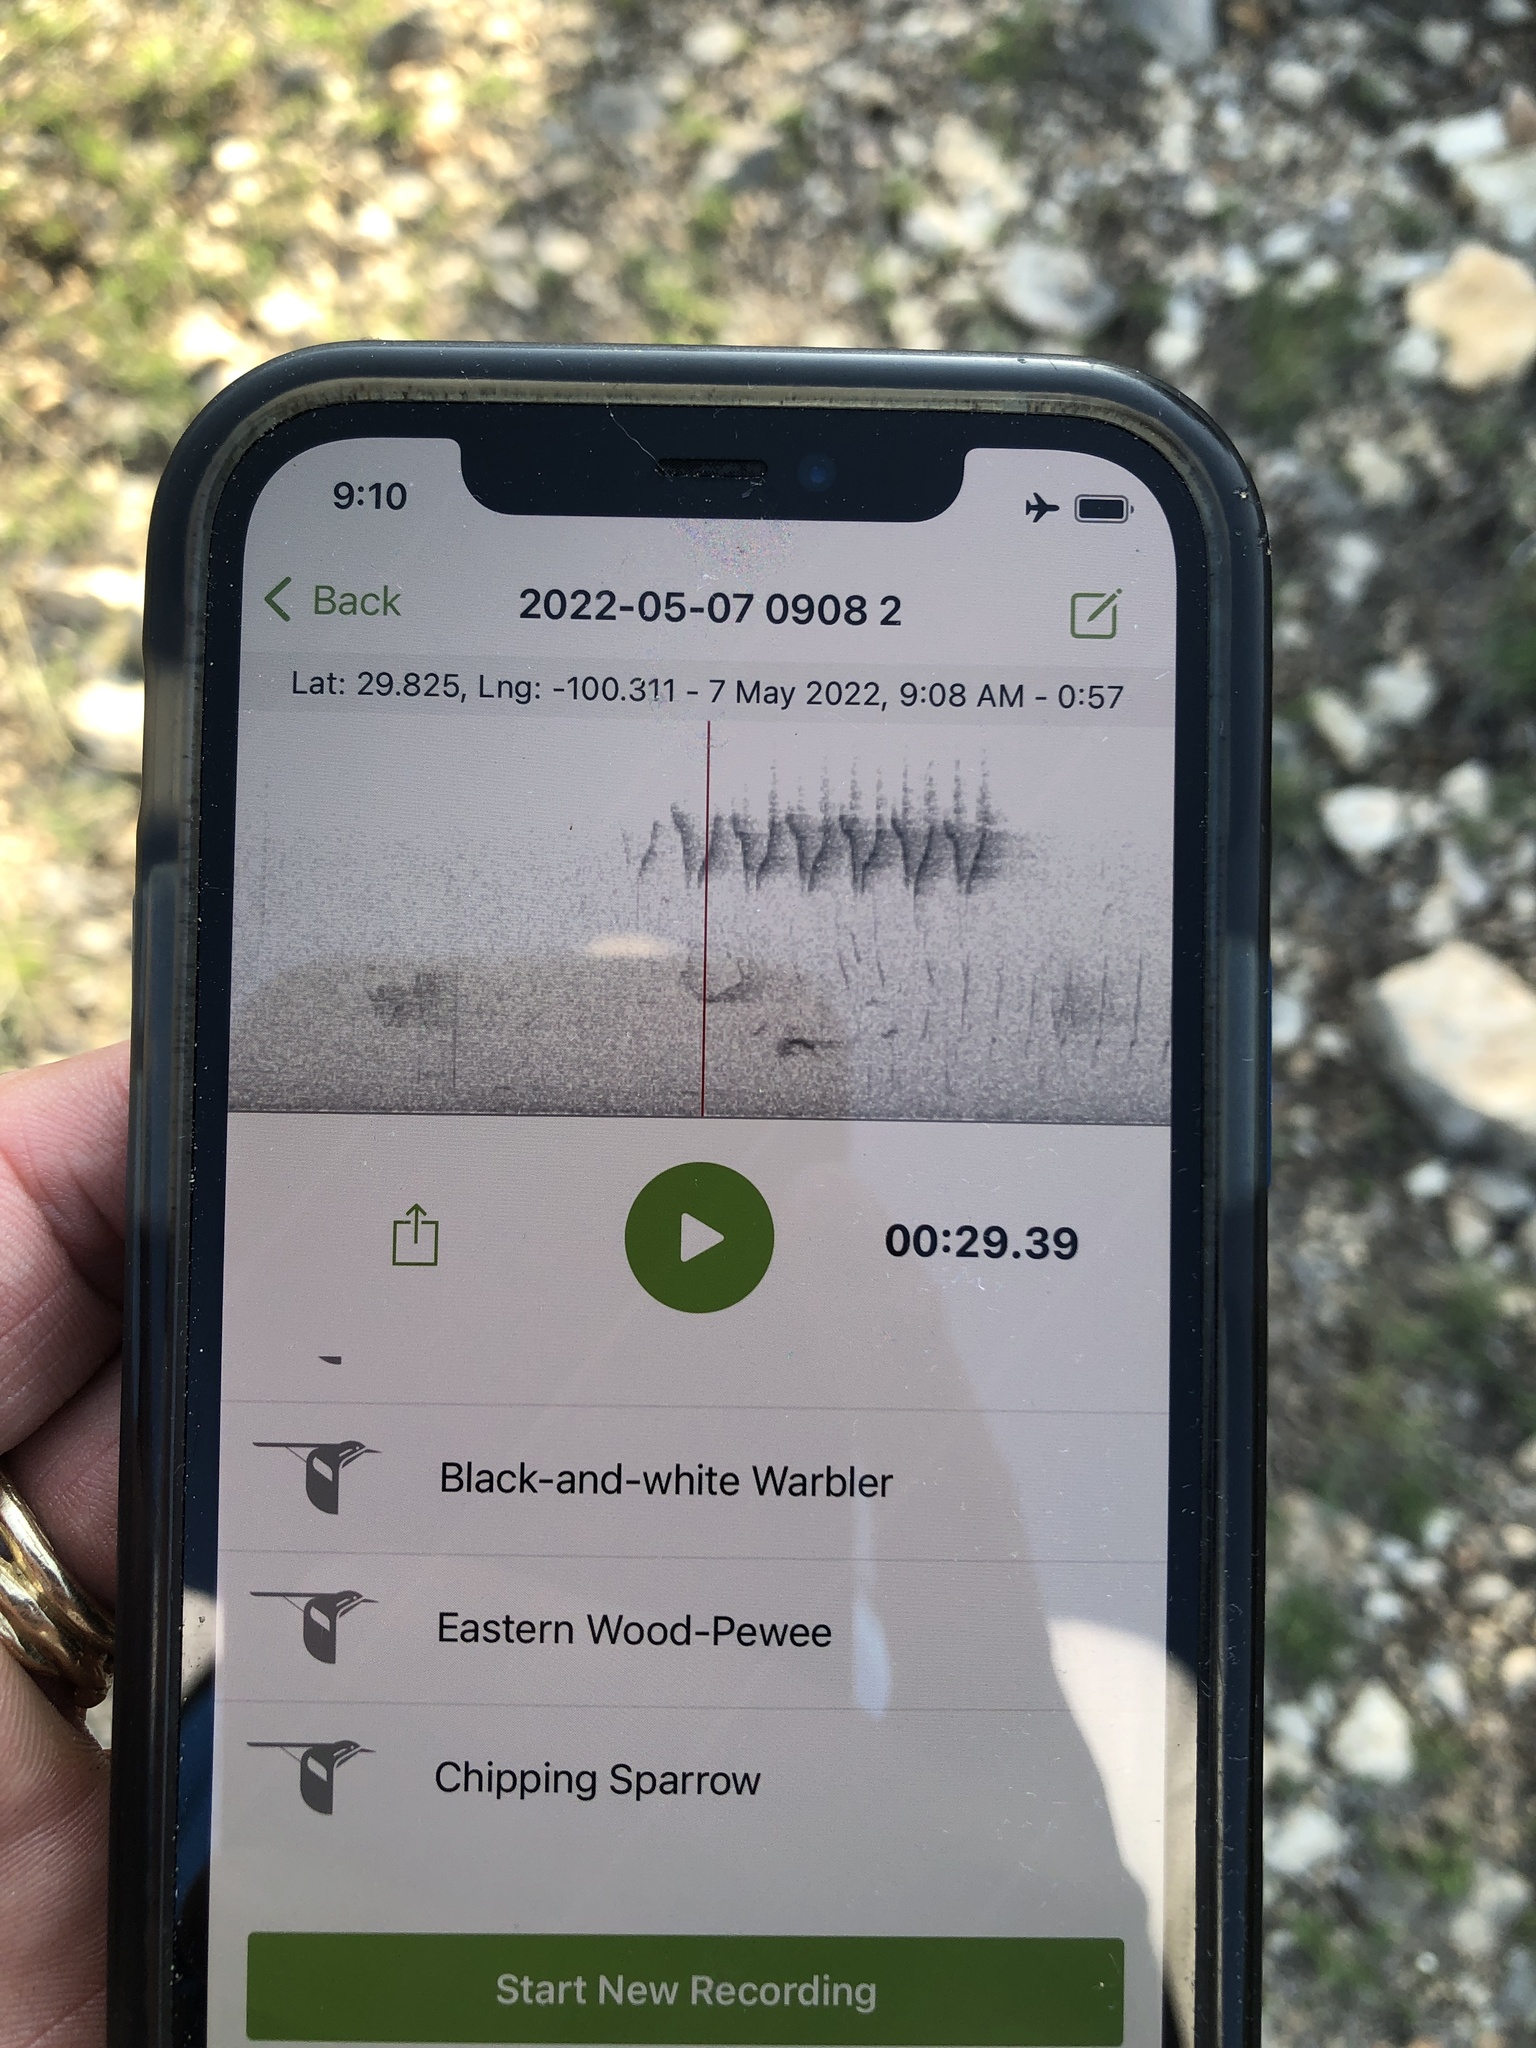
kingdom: Animalia
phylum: Chordata
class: Aves
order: Passeriformes
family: Parulidae
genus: Mniotilta
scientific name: Mniotilta varia
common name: Black-and-white warbler
